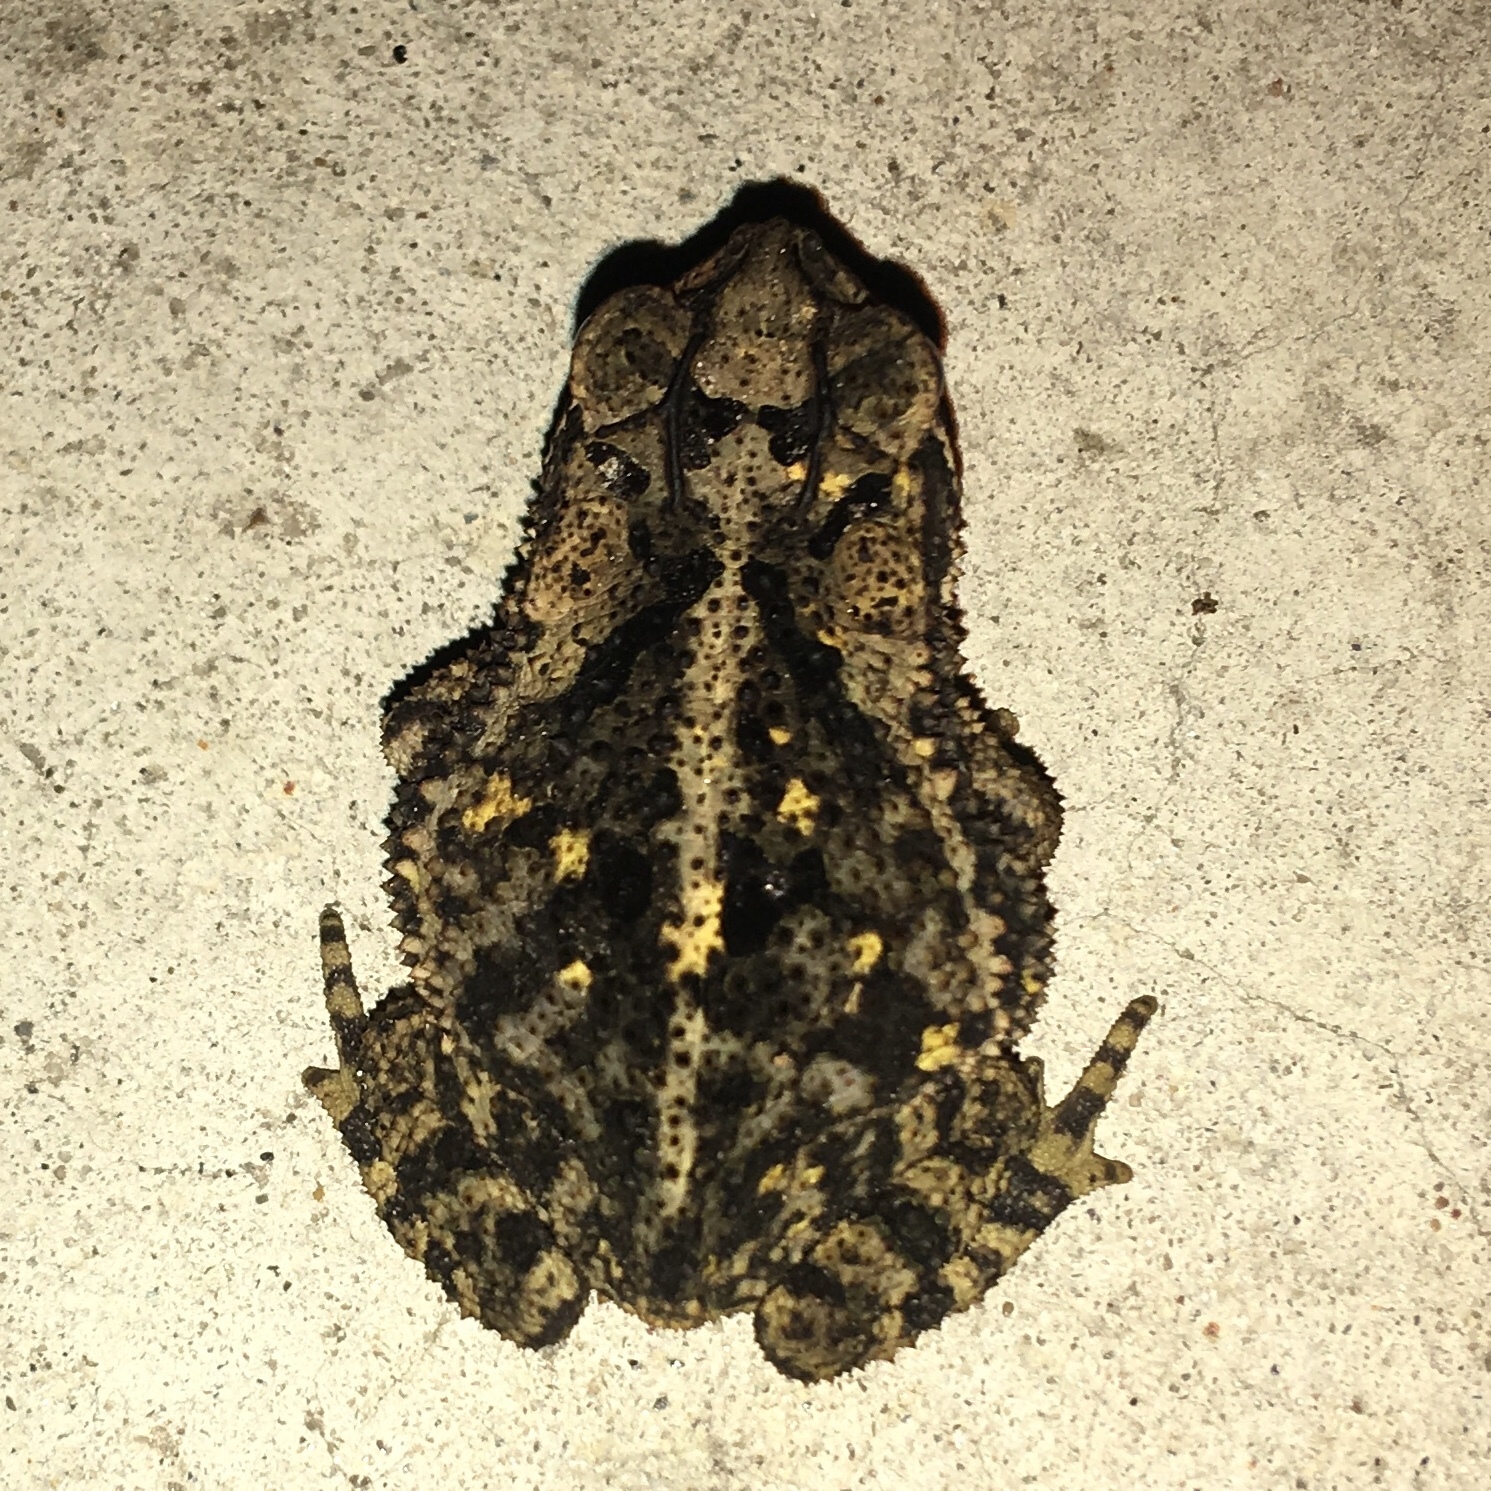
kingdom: Animalia
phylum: Chordata
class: Amphibia
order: Anura
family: Bufonidae
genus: Incilius
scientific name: Incilius nebulifer
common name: Gulf coast toad
